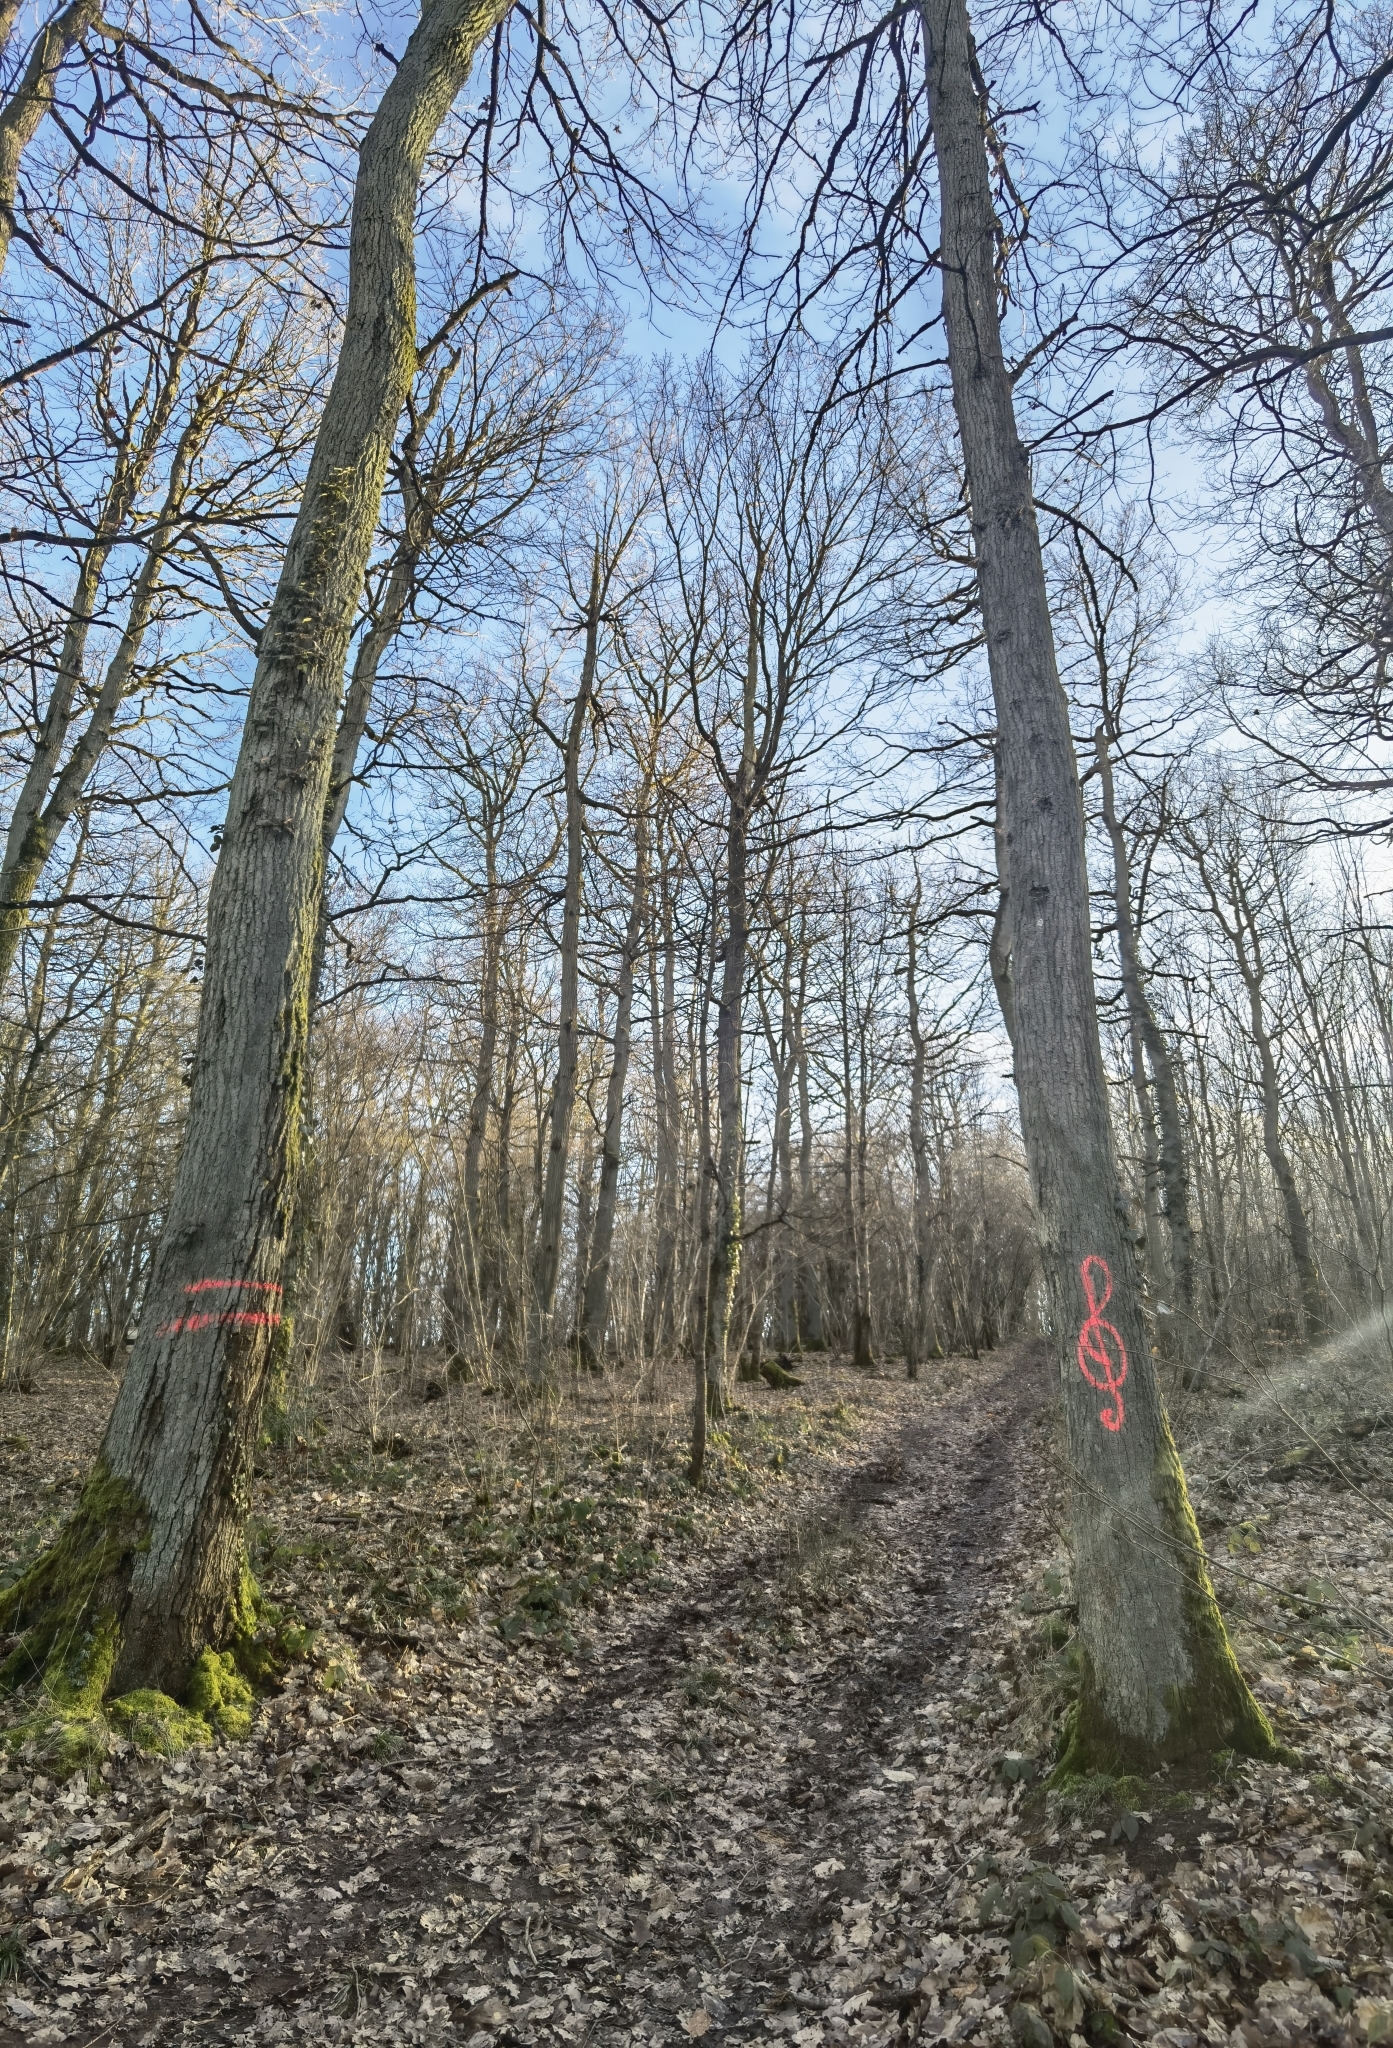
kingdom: Plantae
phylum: Tracheophyta
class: Magnoliopsida
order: Fagales
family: Fagaceae
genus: Quercus
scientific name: Quercus rubra
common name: Red oak
